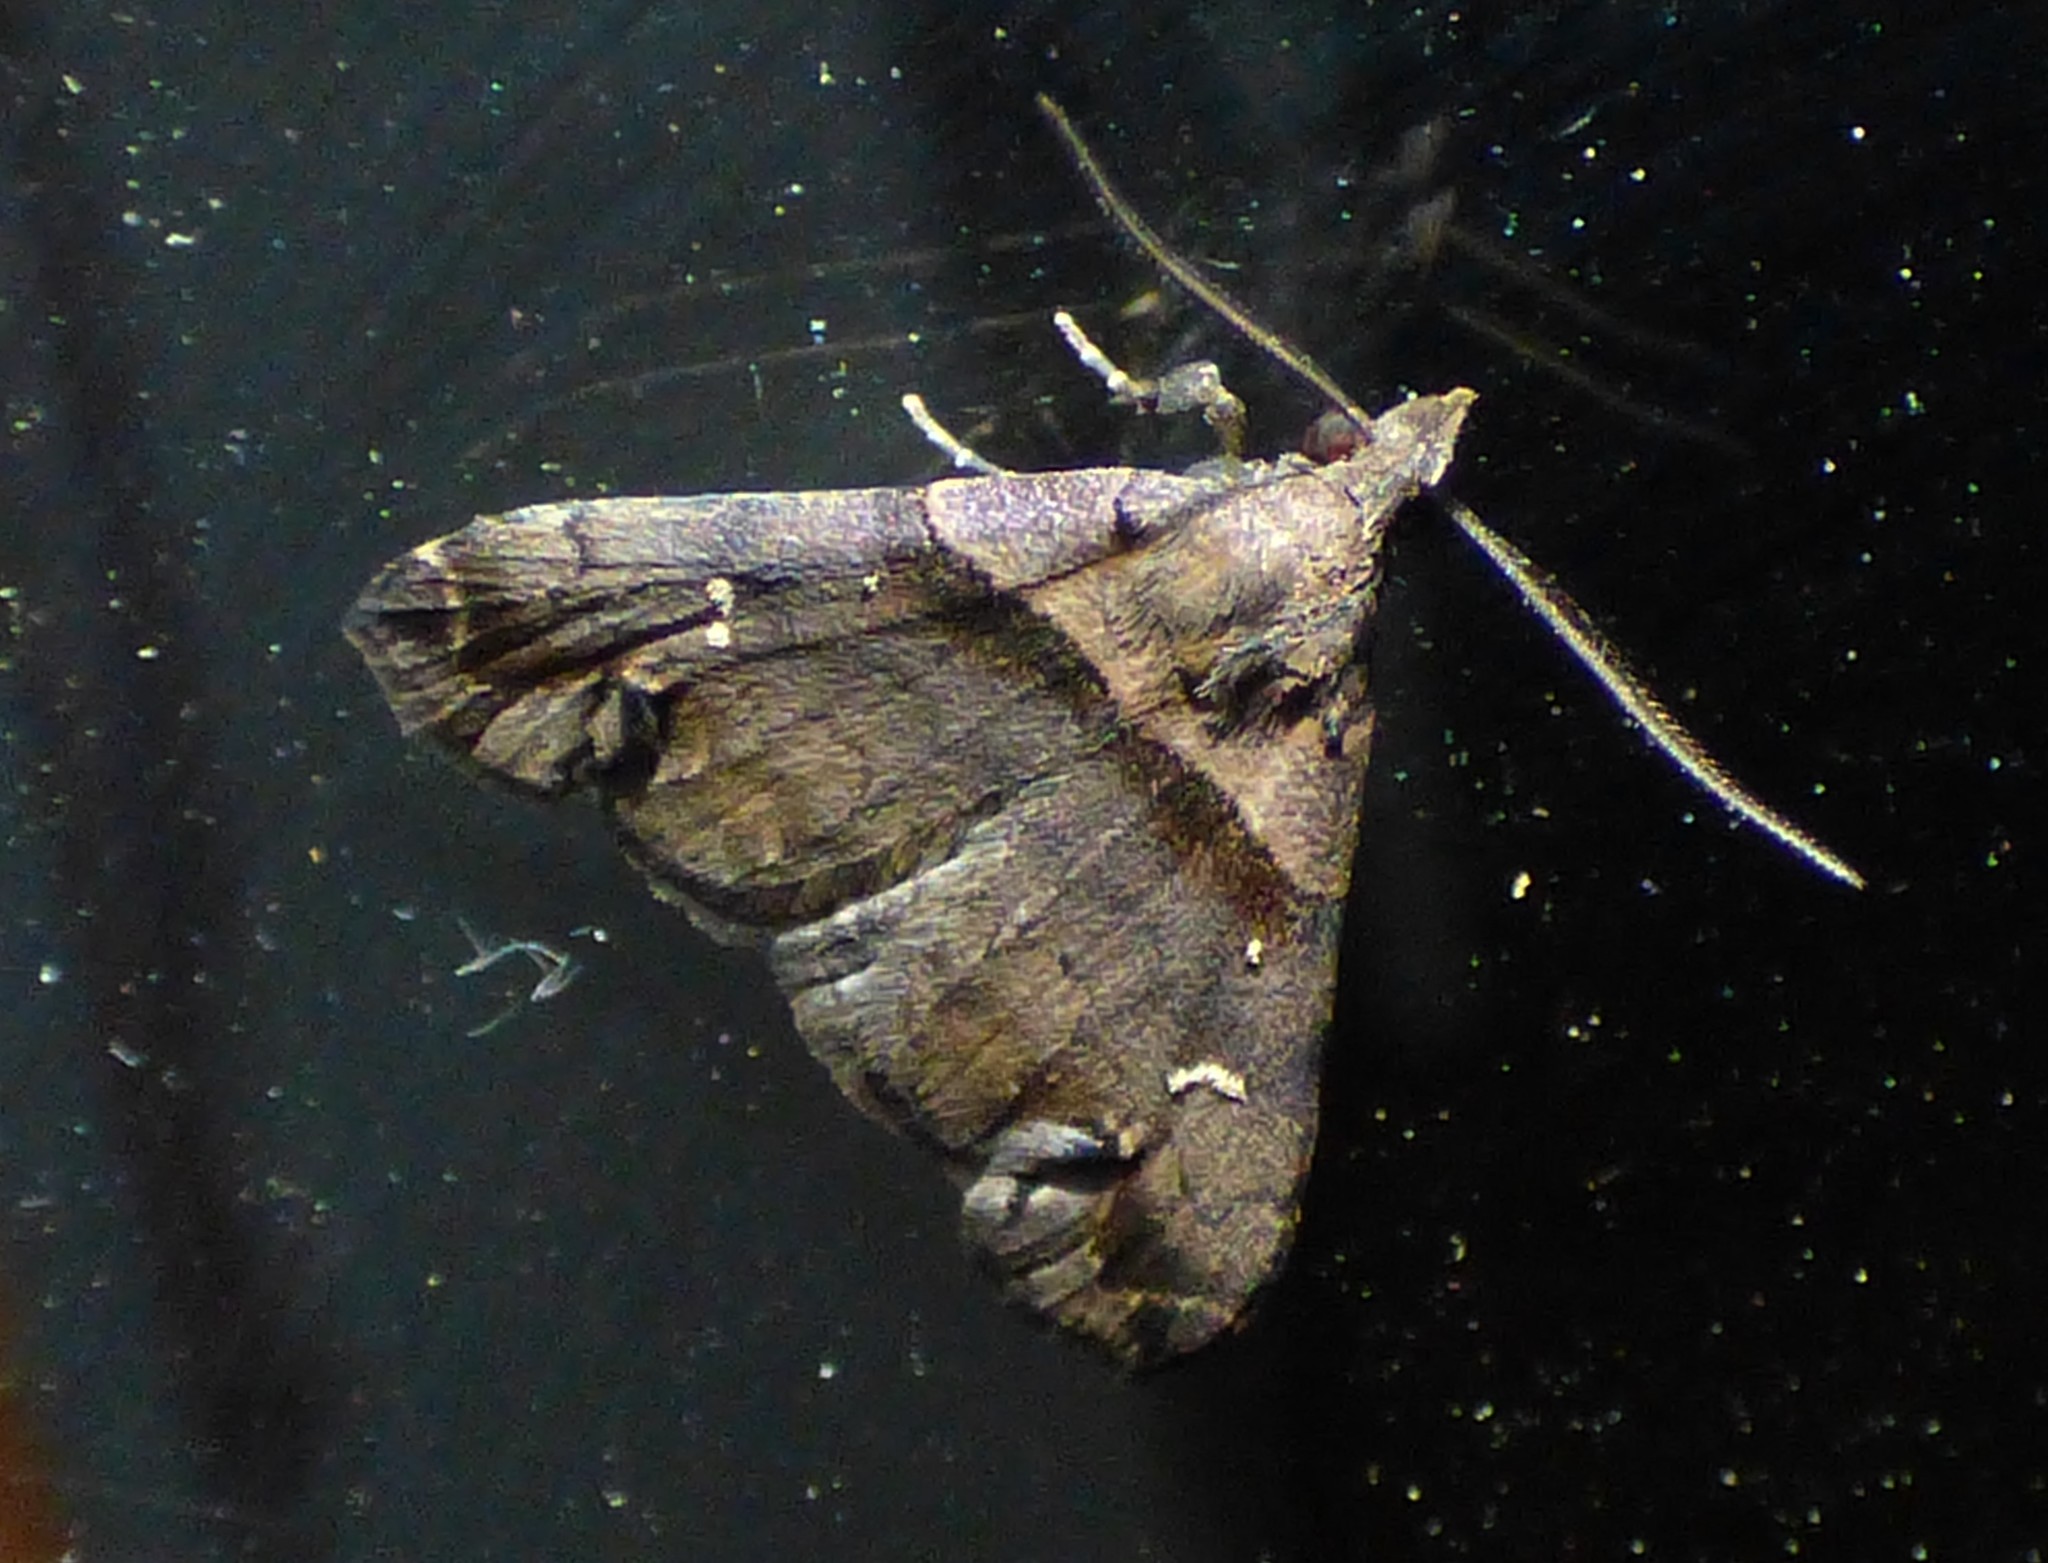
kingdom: Animalia
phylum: Arthropoda
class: Insecta
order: Lepidoptera
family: Erebidae
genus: Lascoria
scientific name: Lascoria ambigualis
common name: Ambiguous moth
